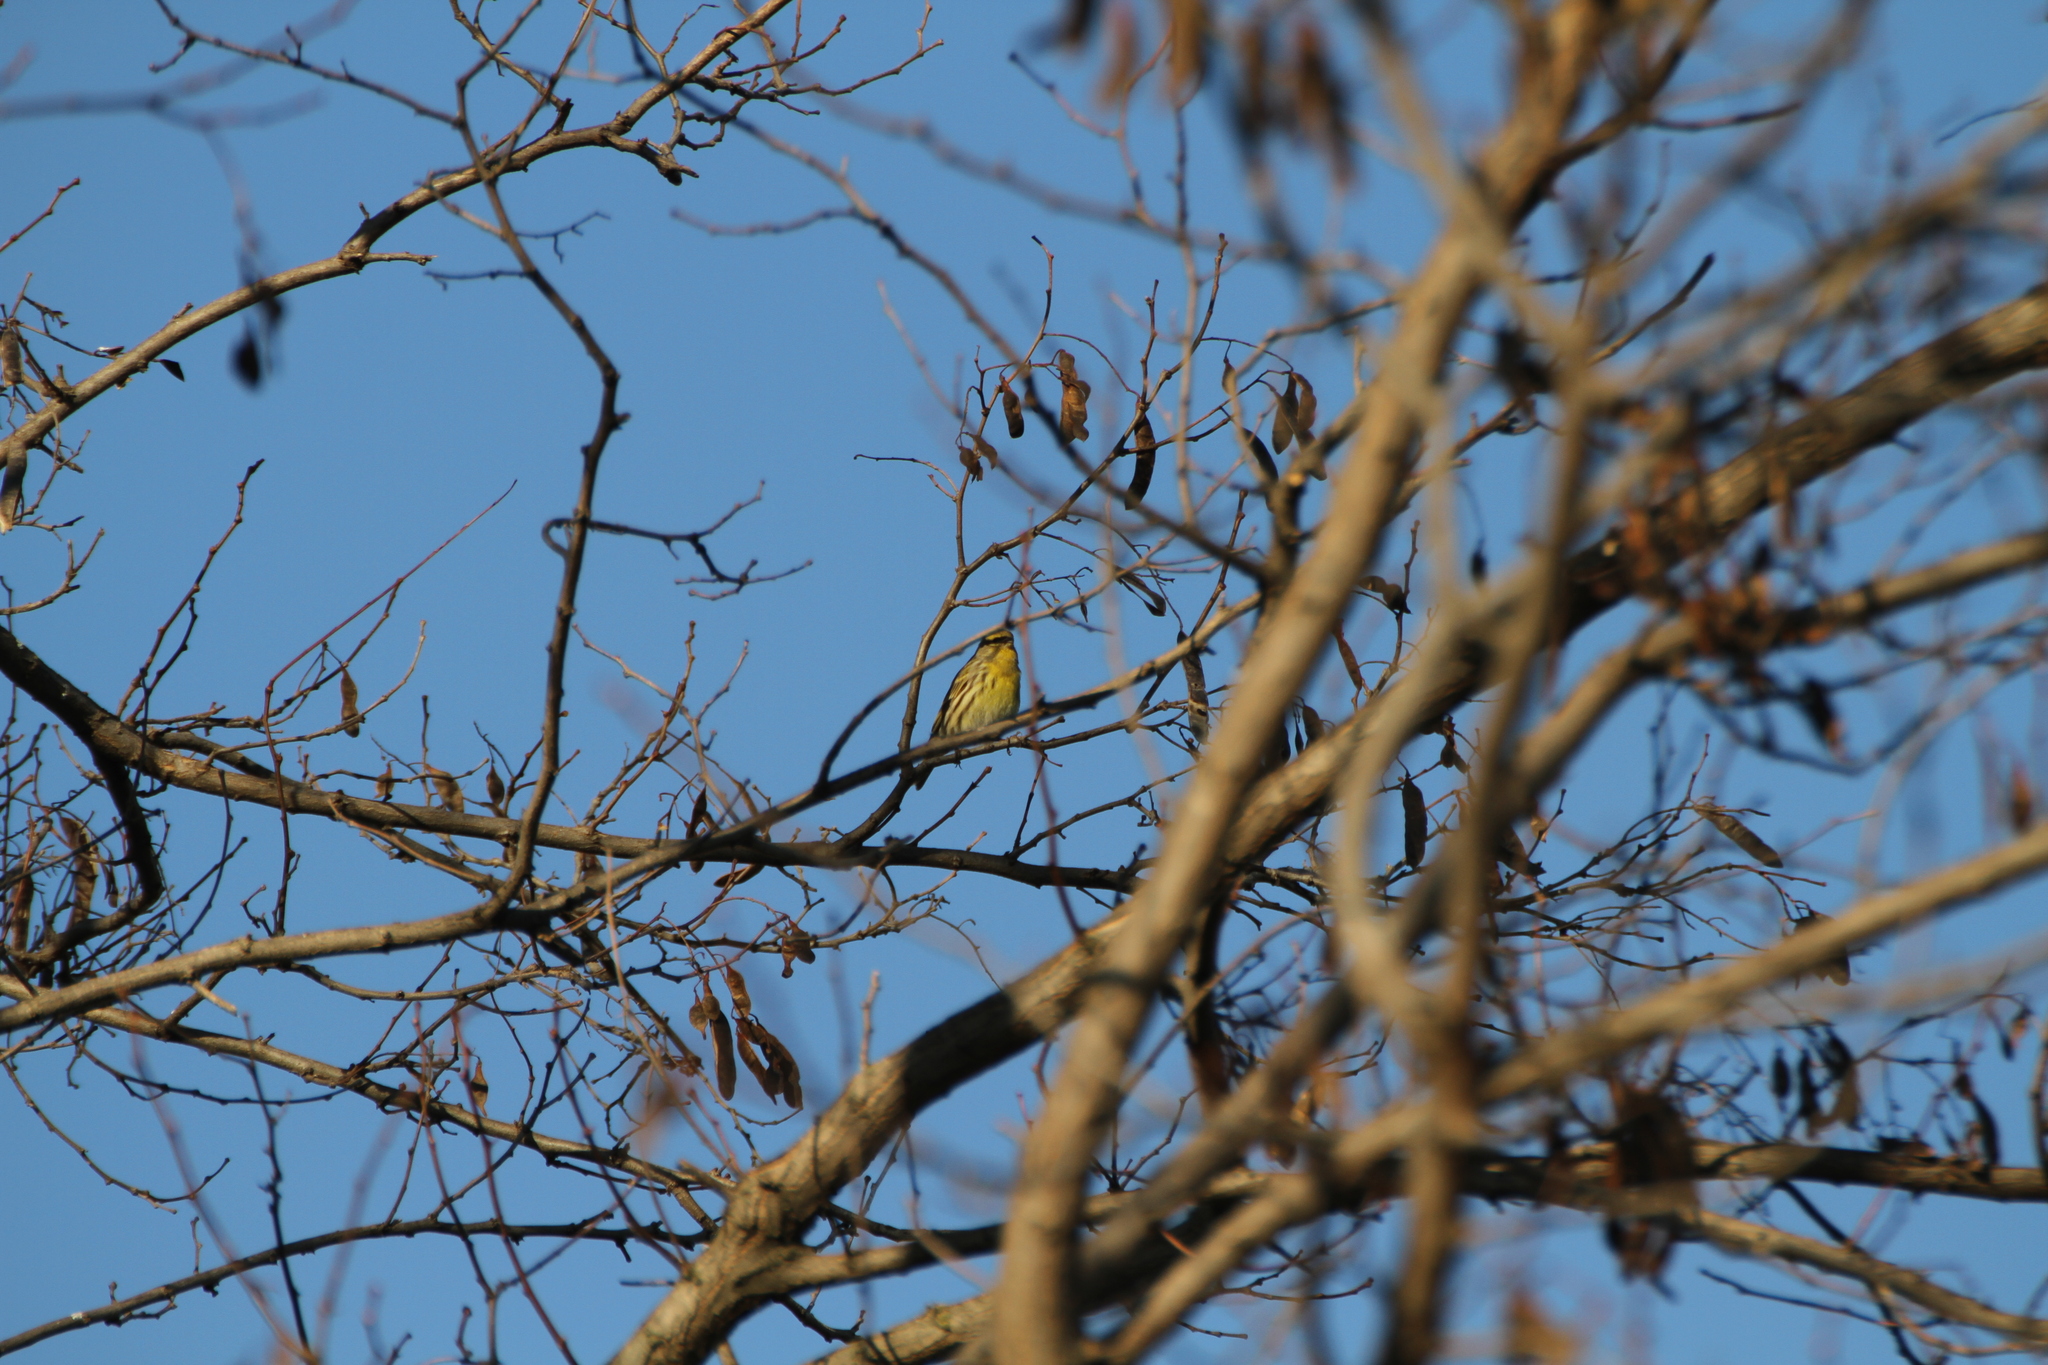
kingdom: Animalia
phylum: Chordata
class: Aves
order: Passeriformes
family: Fringillidae
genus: Serinus
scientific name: Serinus serinus
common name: European serin
